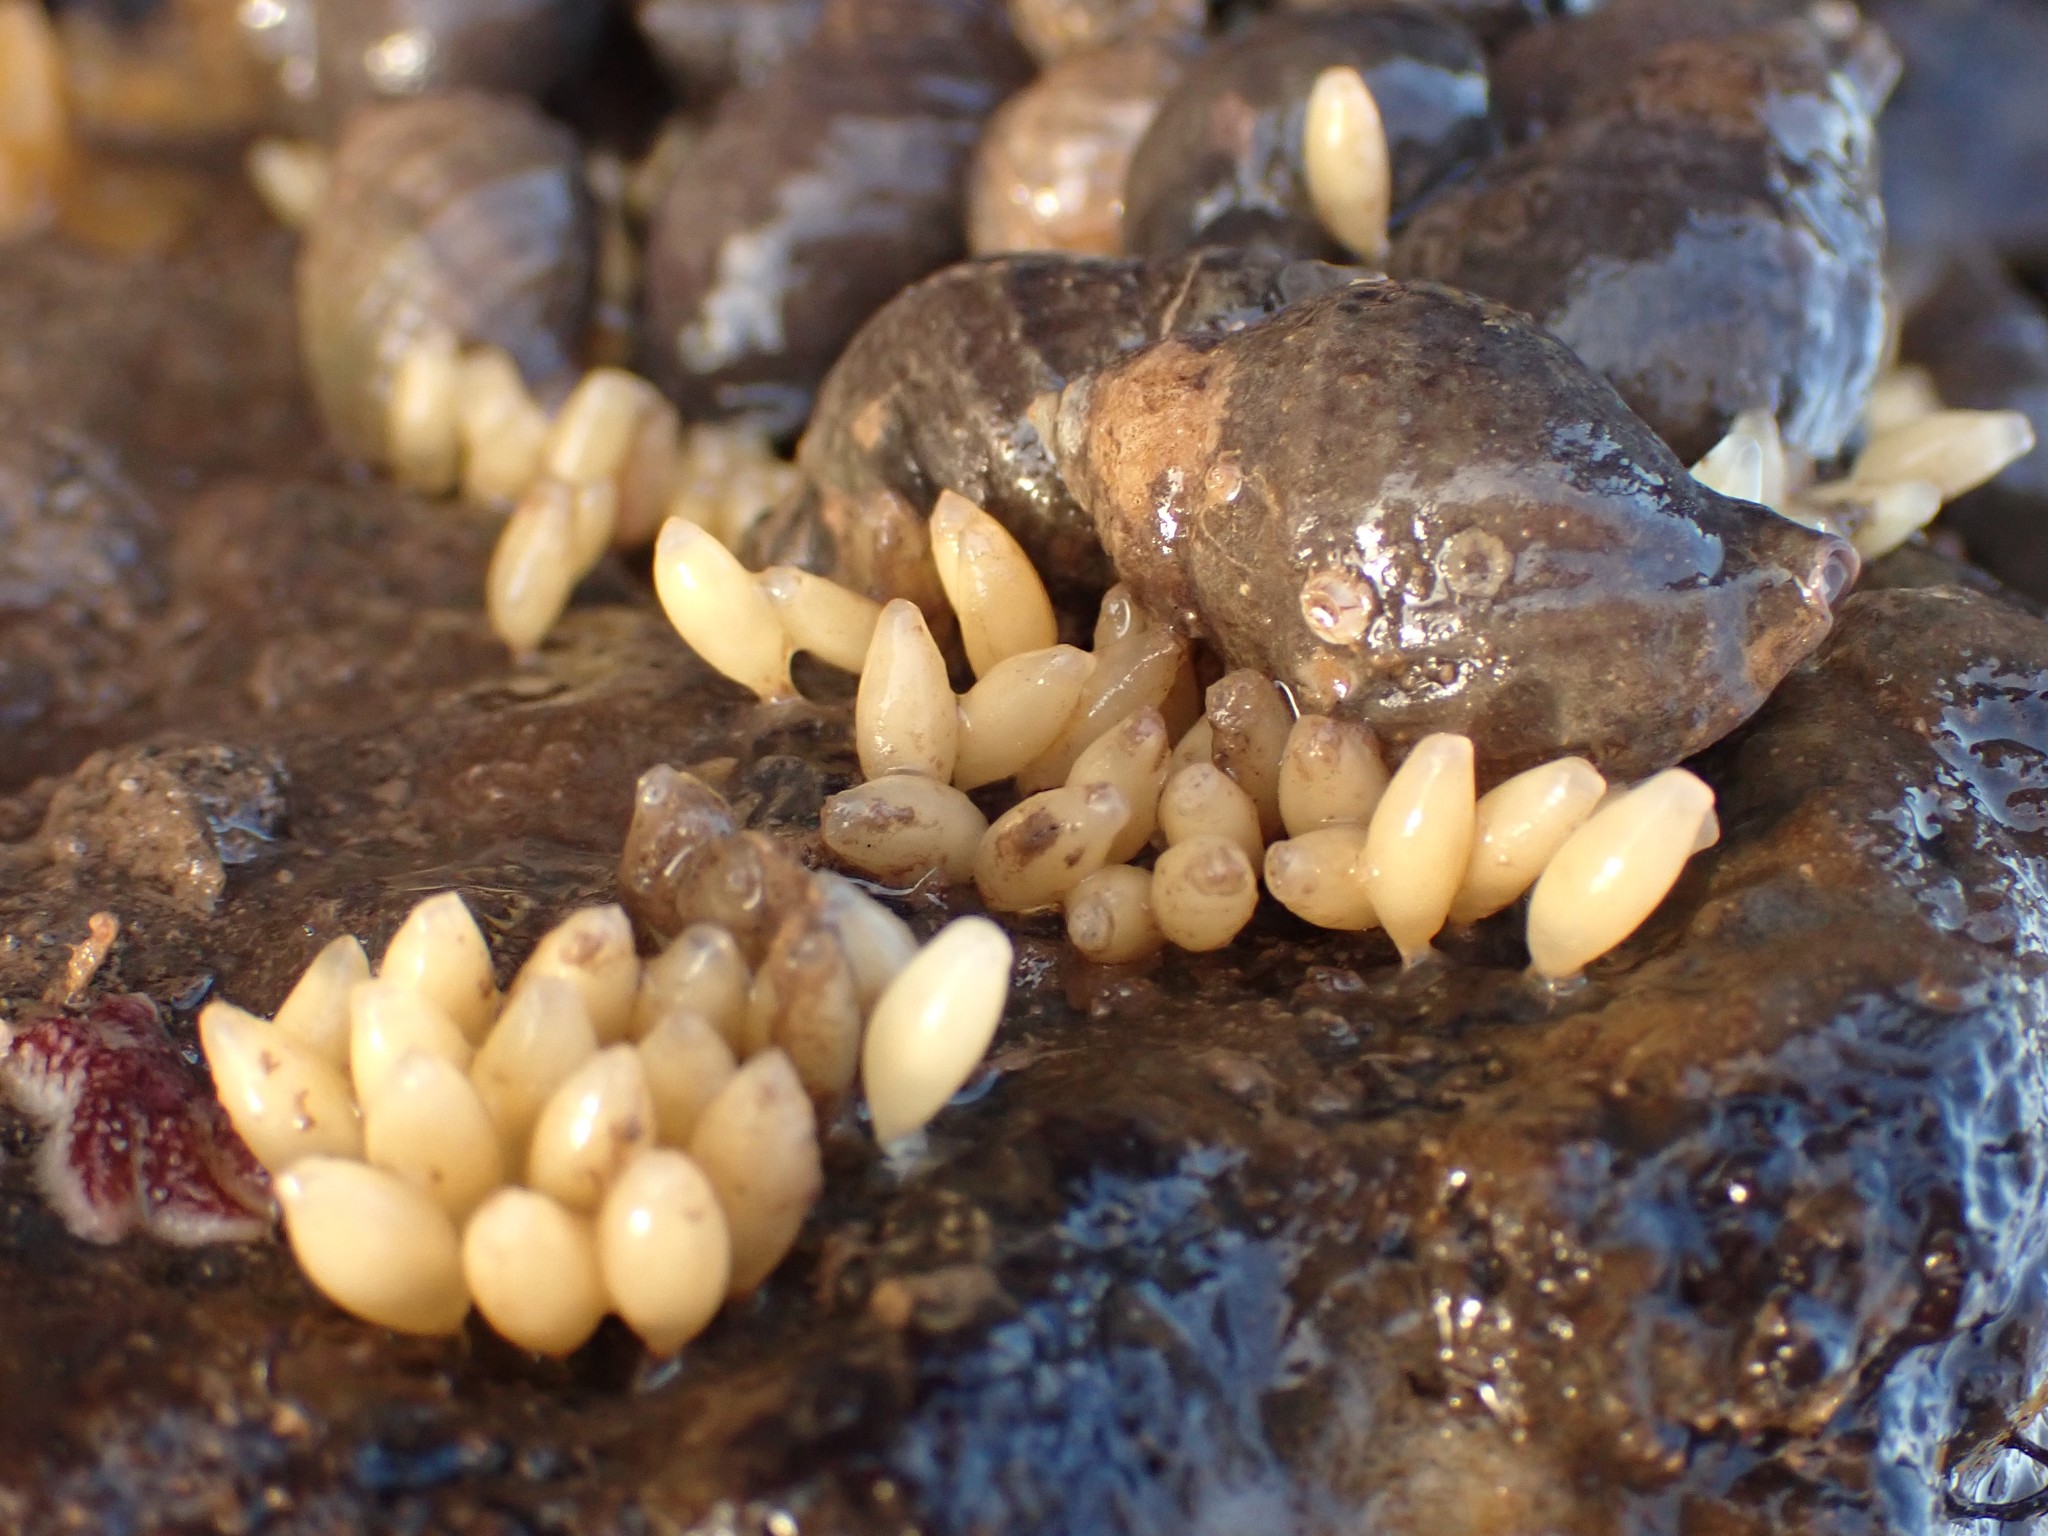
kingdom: Animalia
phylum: Mollusca
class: Gastropoda
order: Neogastropoda
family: Muricidae
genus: Nucella
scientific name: Nucella lapillus
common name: Dog whelk
